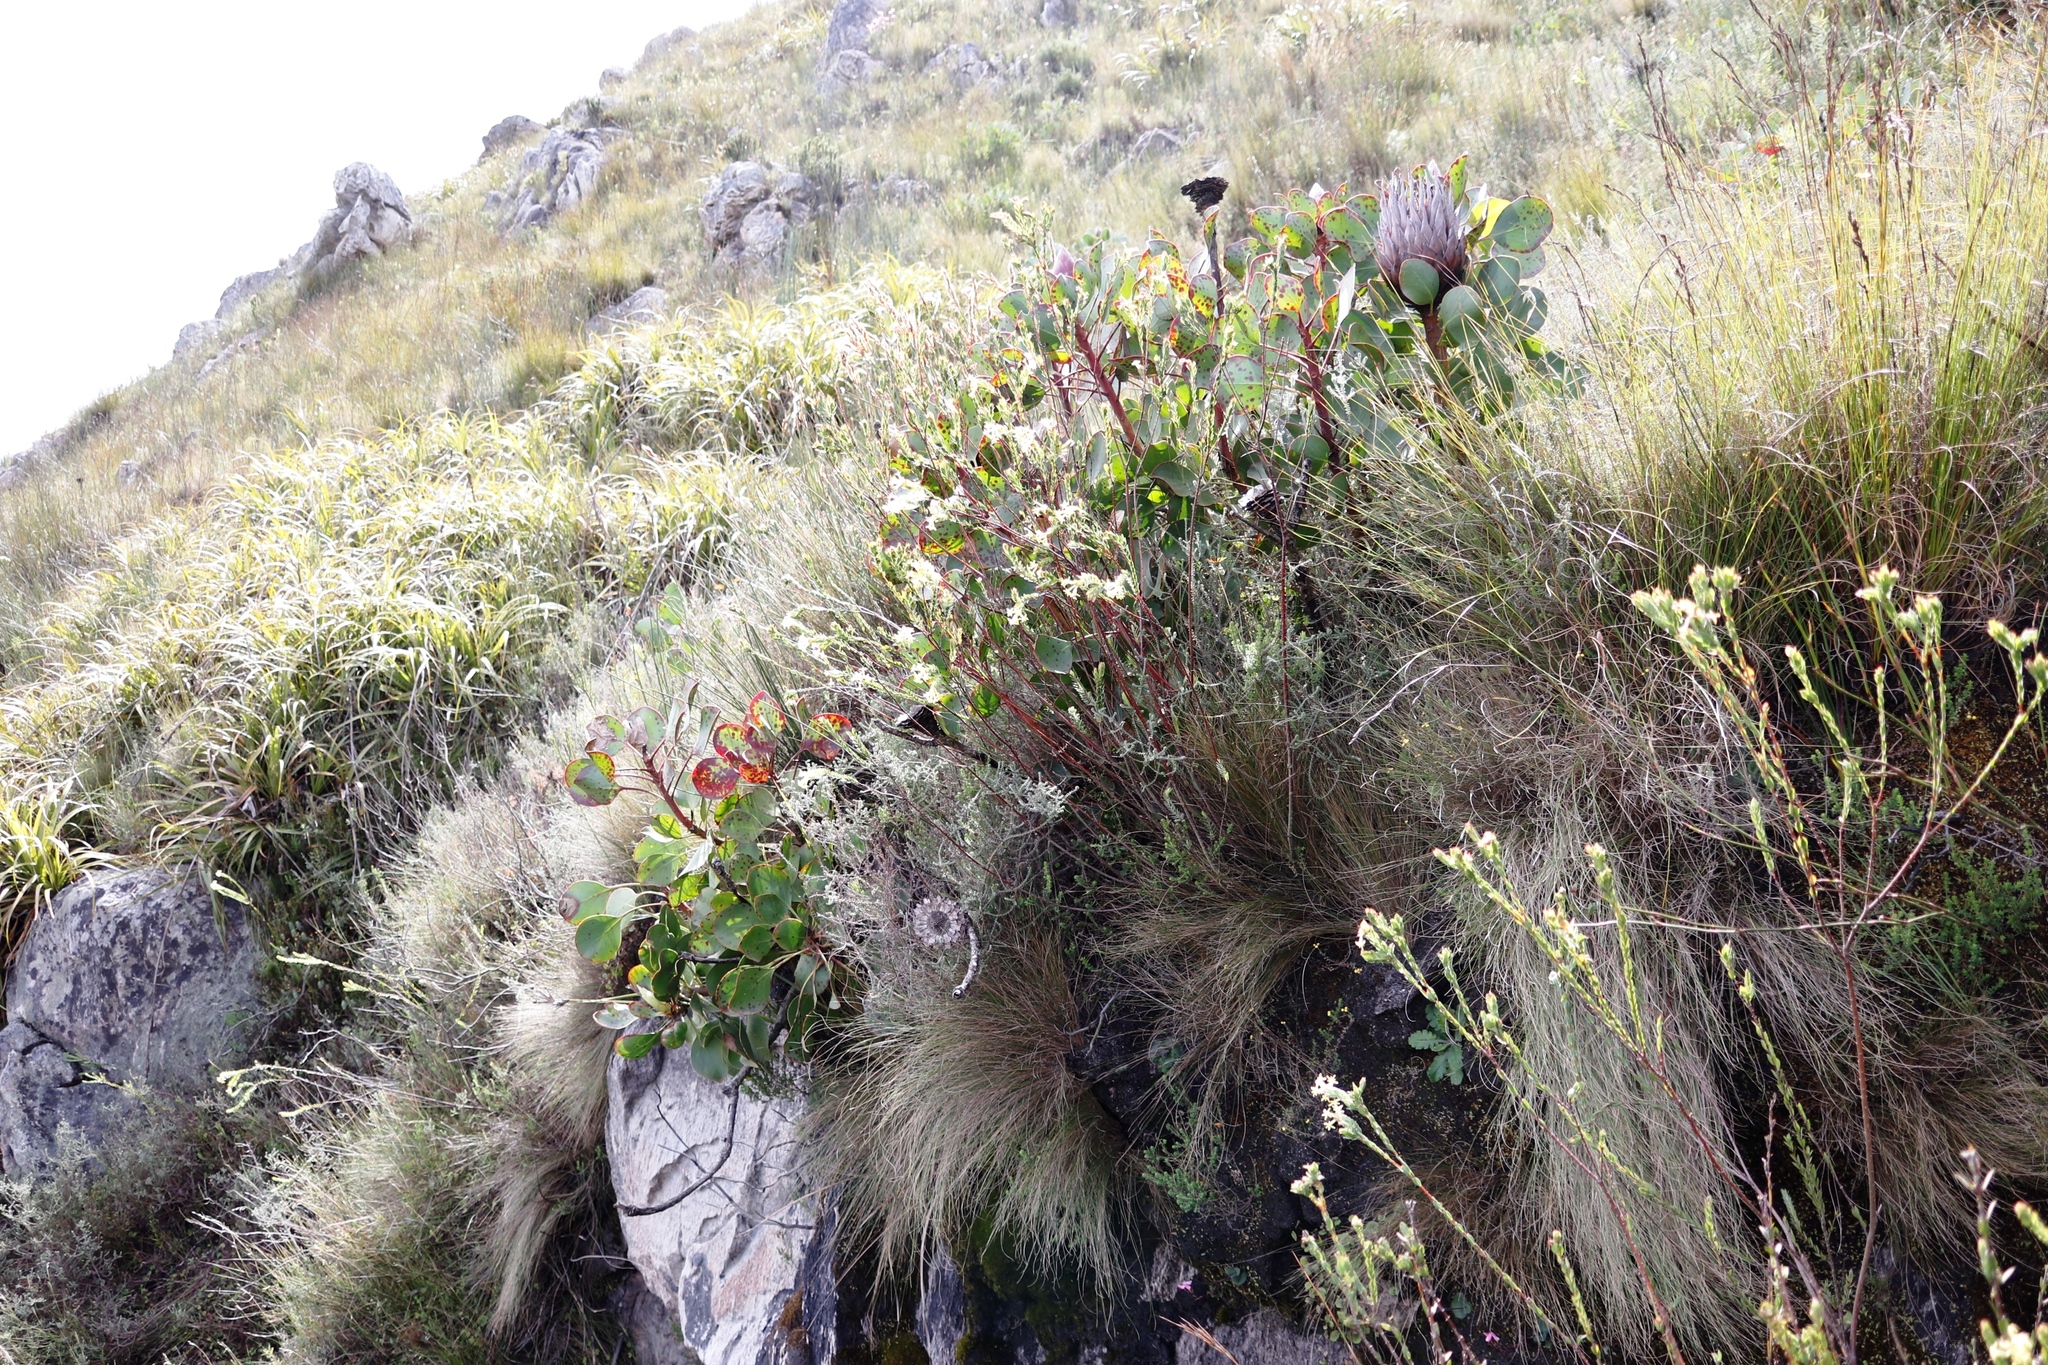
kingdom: Plantae
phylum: Tracheophyta
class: Magnoliopsida
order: Malvales
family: Thymelaeaceae
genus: Gnidia
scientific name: Gnidia oppositifolia
